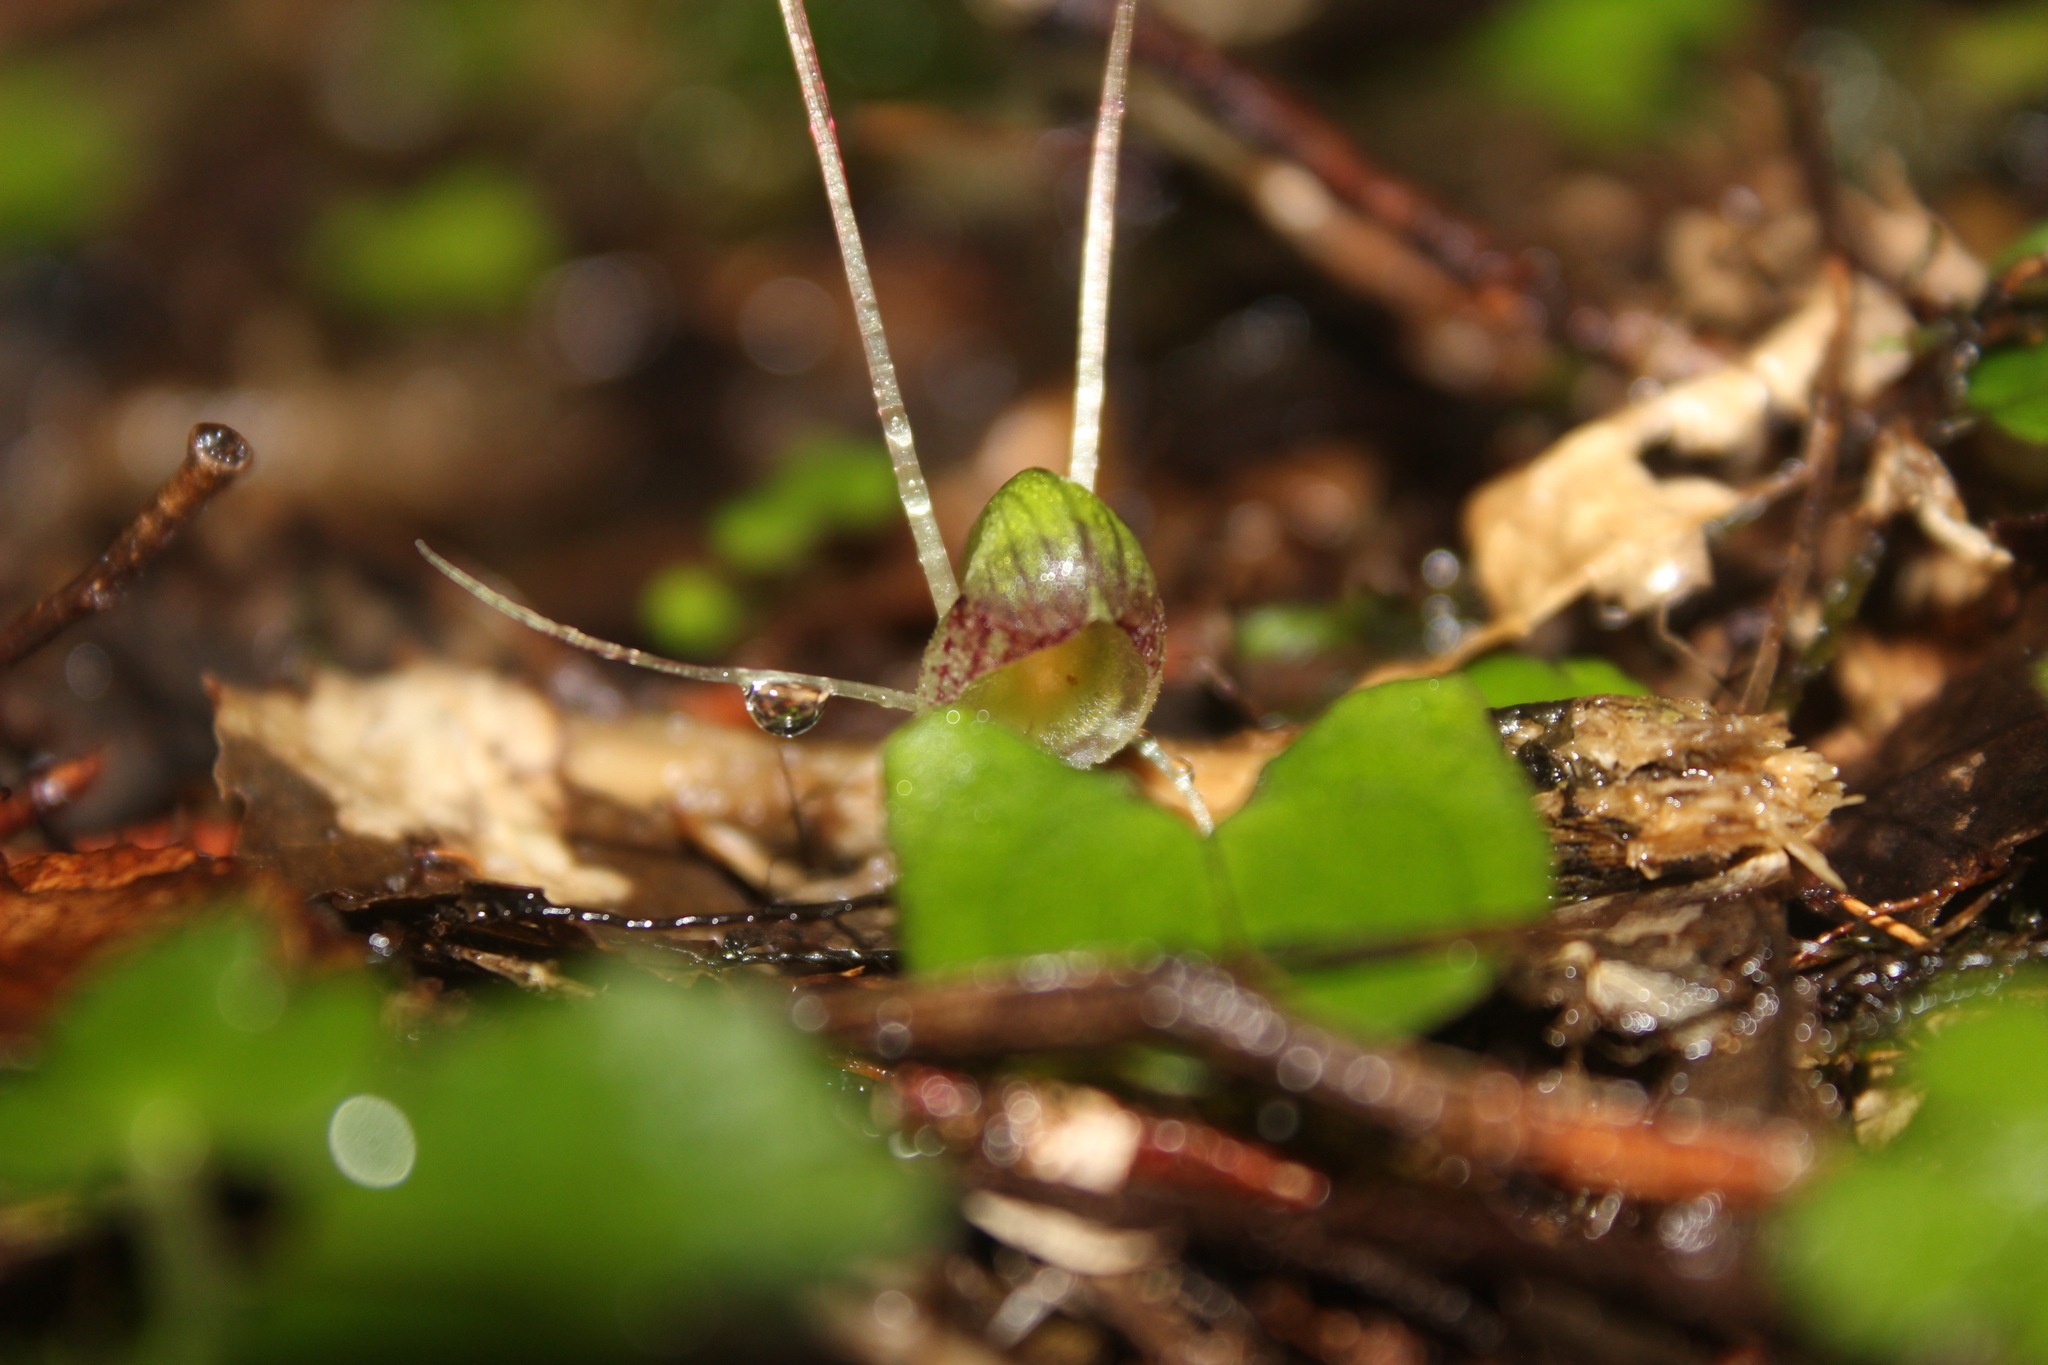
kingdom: Plantae
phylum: Tracheophyta
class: Liliopsida
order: Asparagales
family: Orchidaceae
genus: Corybas
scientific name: Corybas walliae
